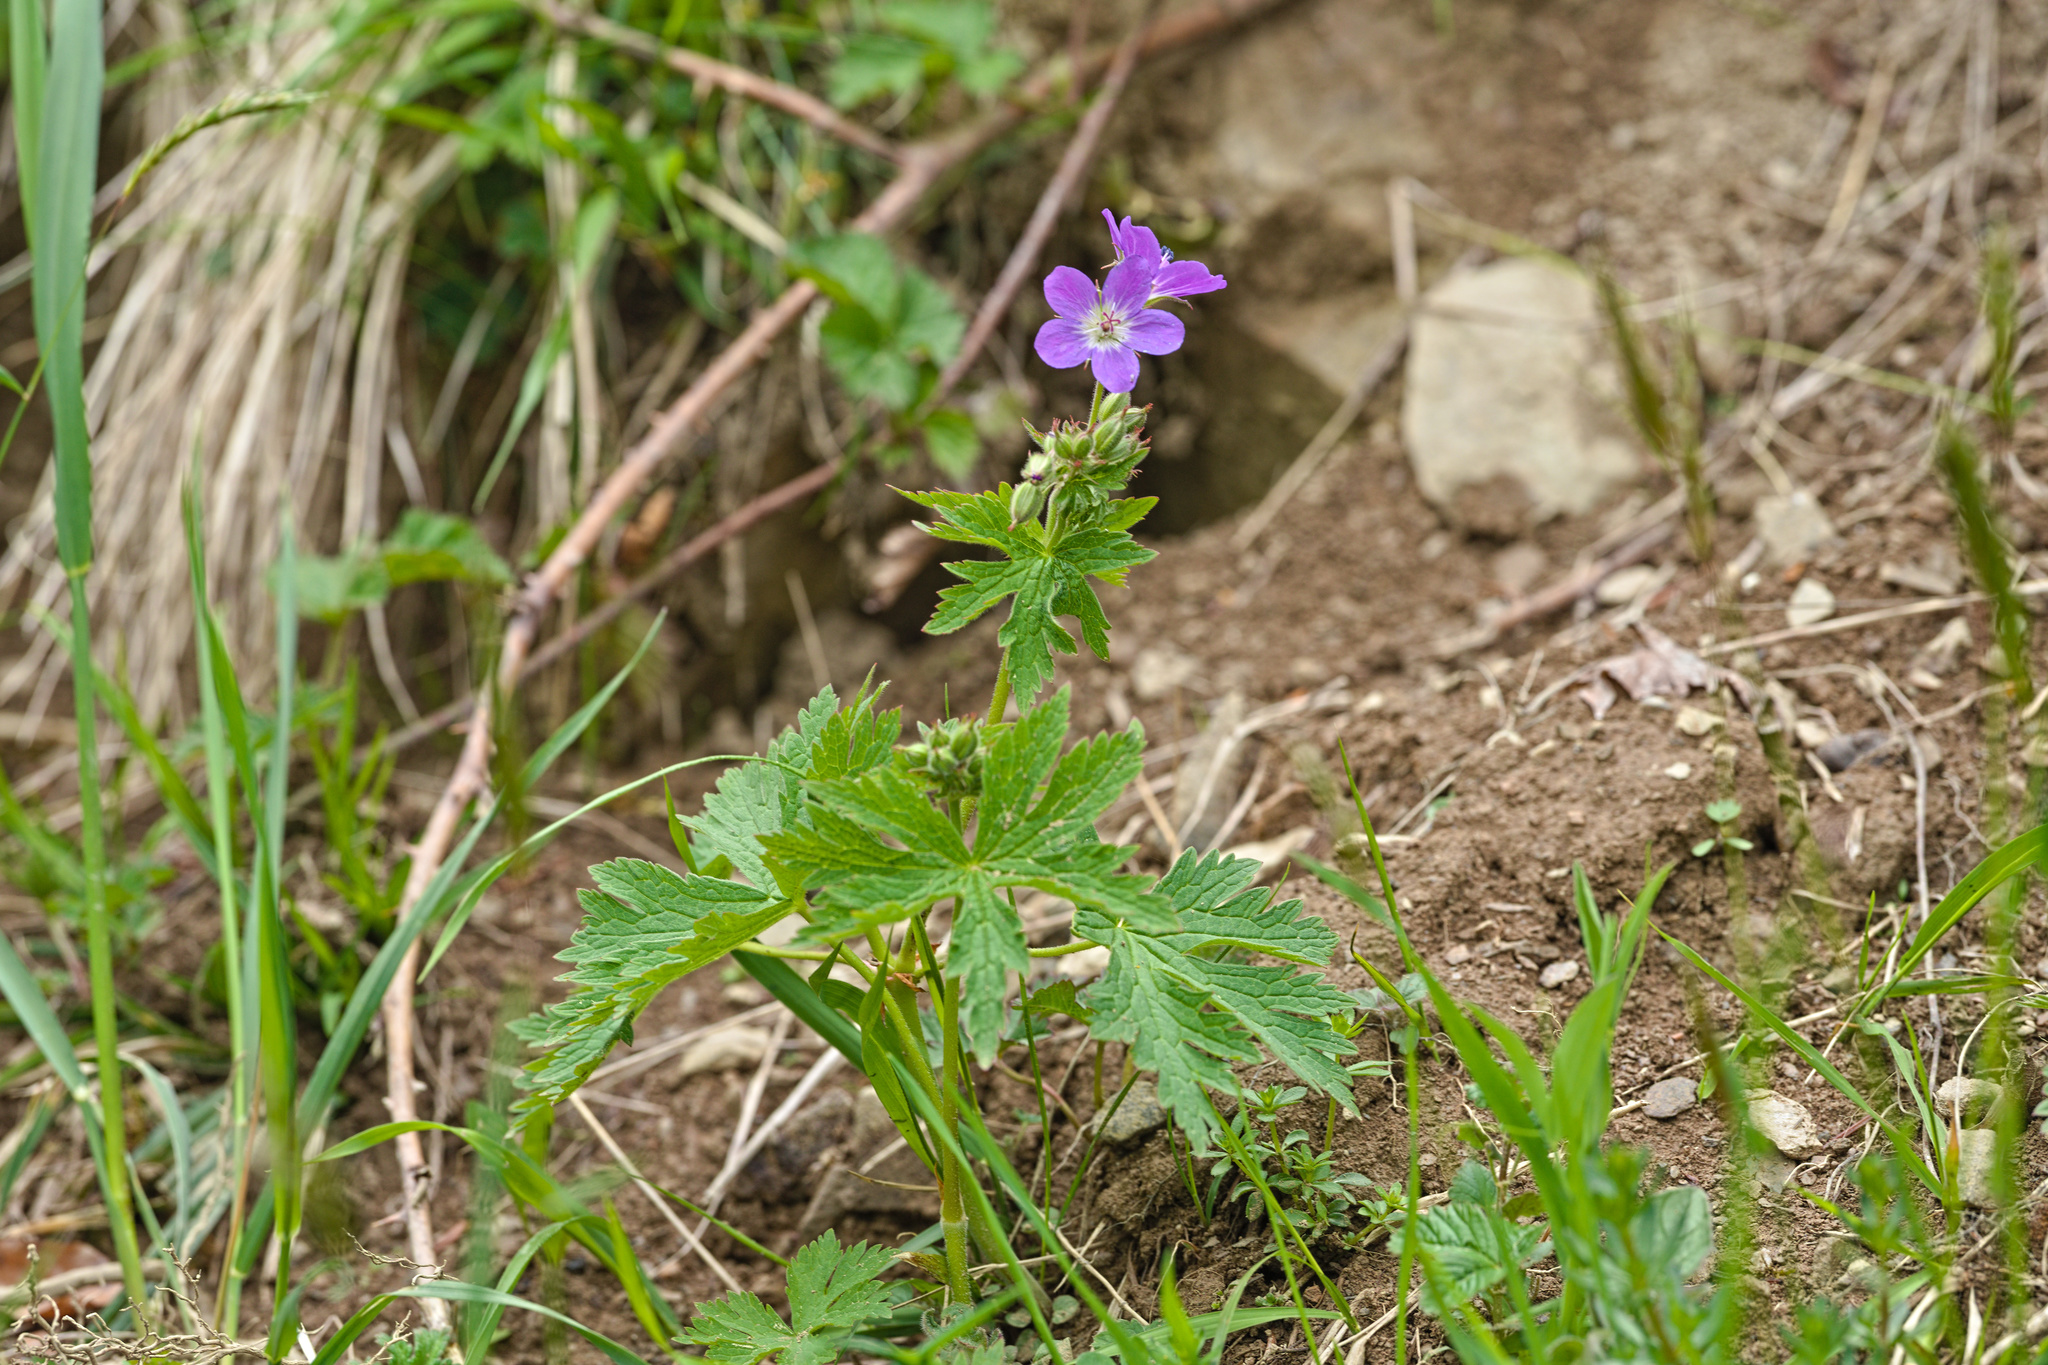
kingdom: Plantae
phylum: Tracheophyta
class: Magnoliopsida
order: Geraniales
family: Geraniaceae
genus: Geranium
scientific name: Geranium sylvaticum
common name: Wood crane's-bill
